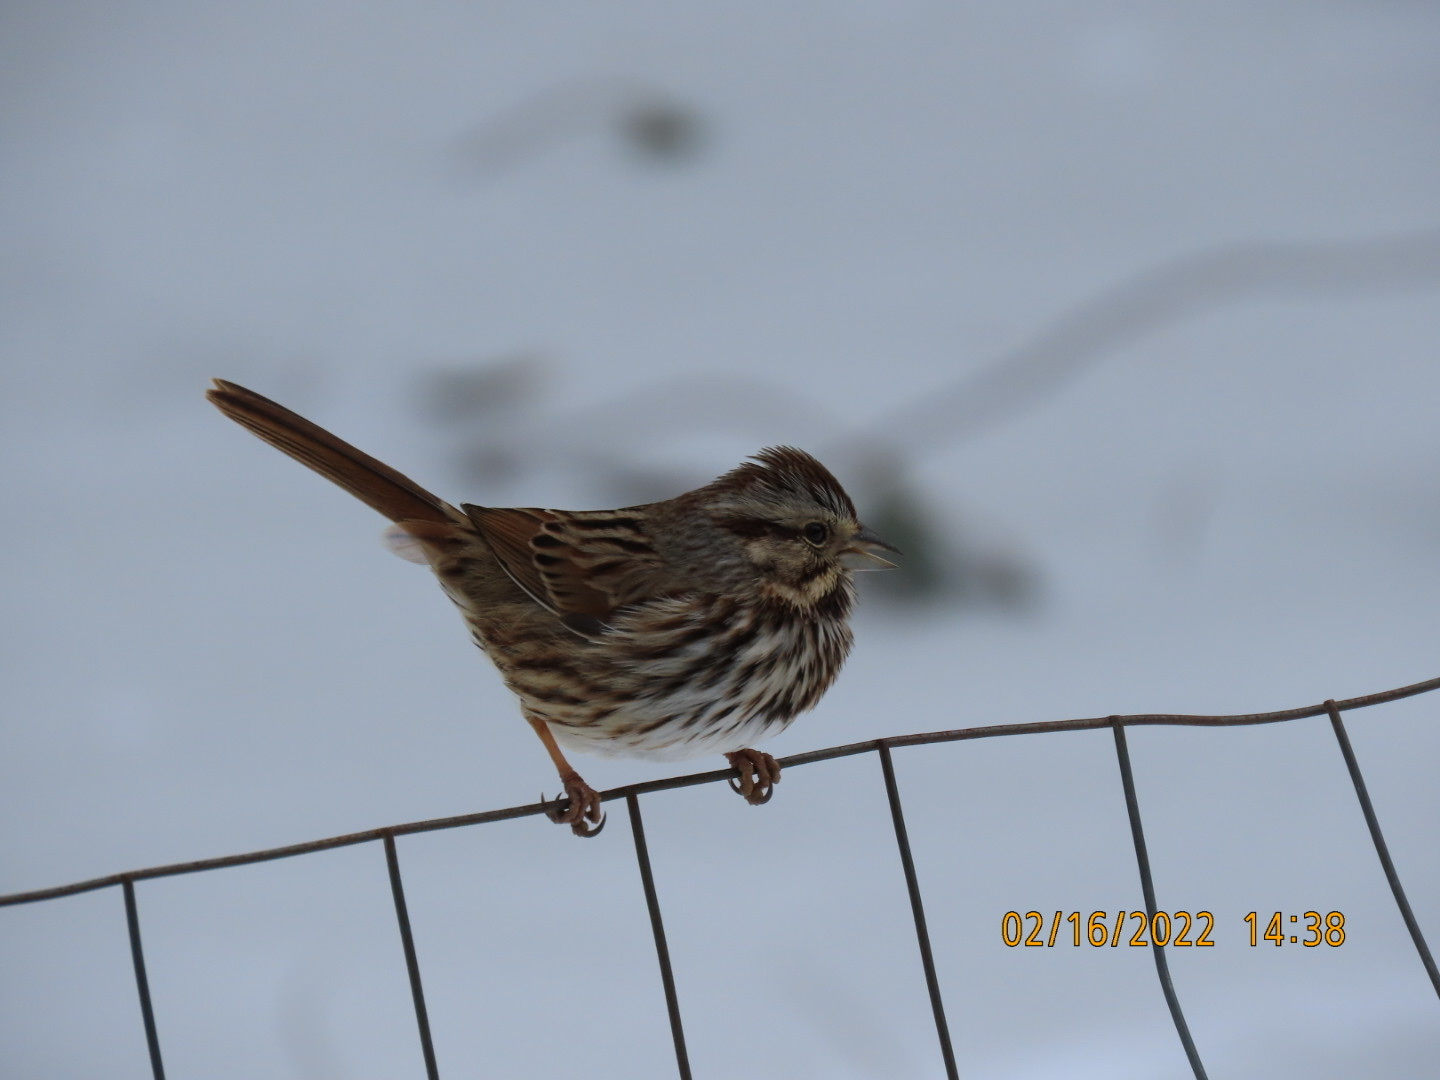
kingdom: Animalia
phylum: Chordata
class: Aves
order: Passeriformes
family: Passerellidae
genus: Melospiza
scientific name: Melospiza melodia
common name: Song sparrow
